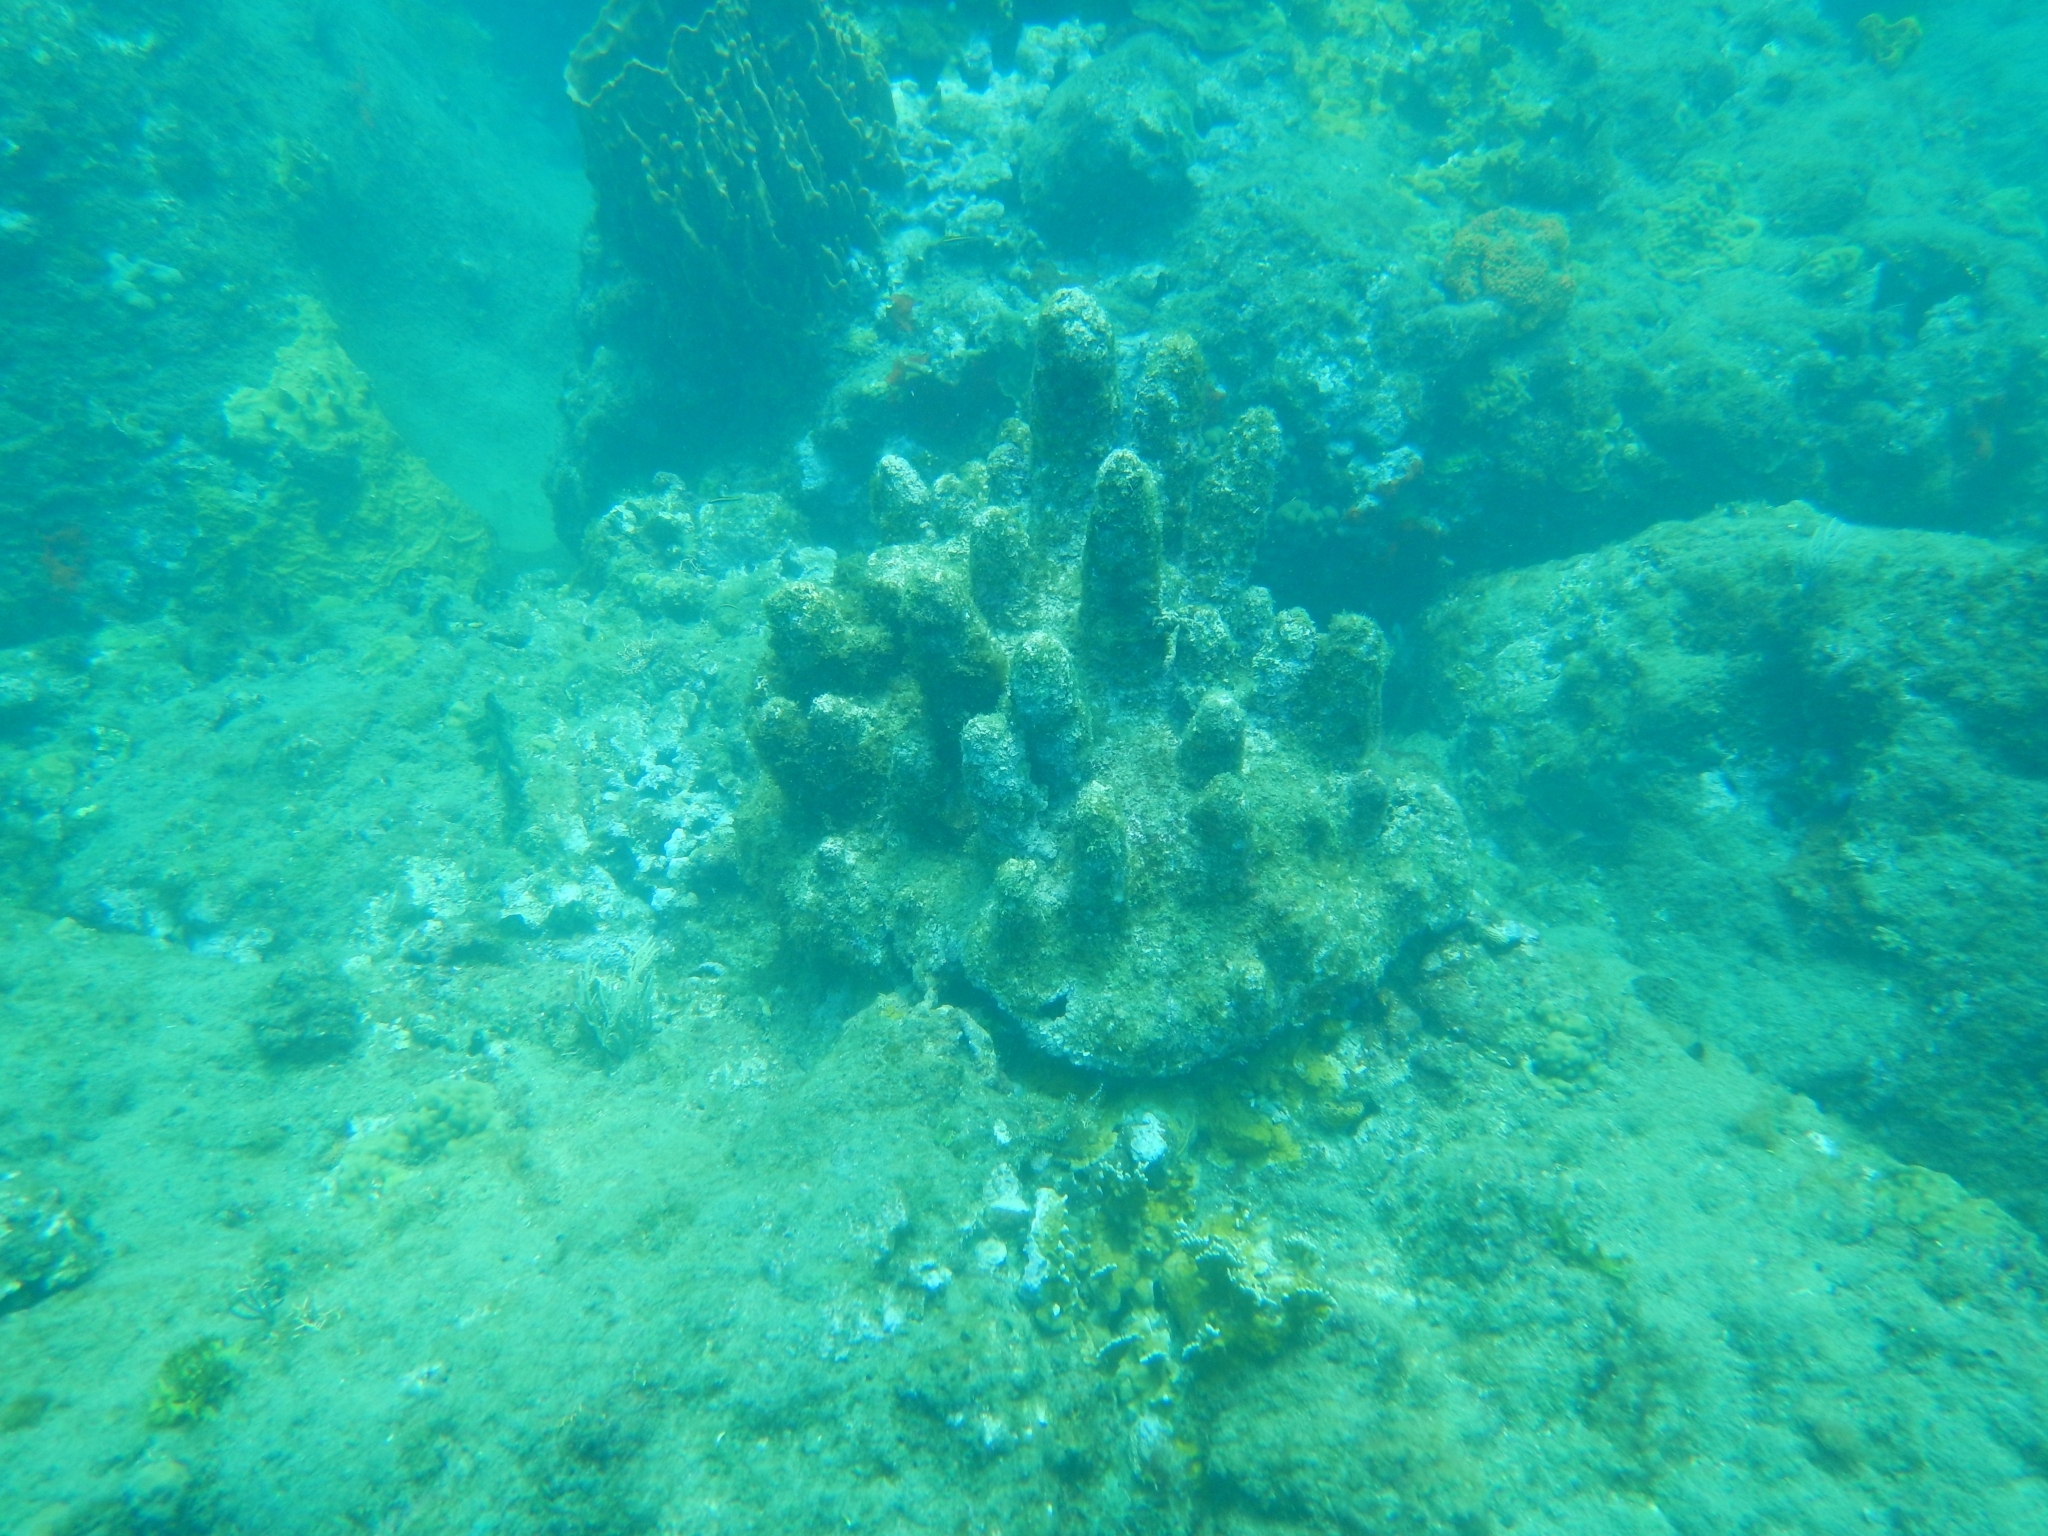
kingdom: Animalia
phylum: Cnidaria
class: Anthozoa
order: Scleractinia
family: Meandrinidae
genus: Dendrogyra
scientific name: Dendrogyra cylindrus
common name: Pillar coral
